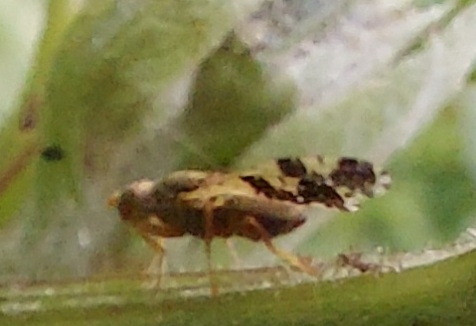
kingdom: Animalia
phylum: Arthropoda
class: Insecta
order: Diptera
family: Tephritidae
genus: Tephritis
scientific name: Tephritis bardanae
